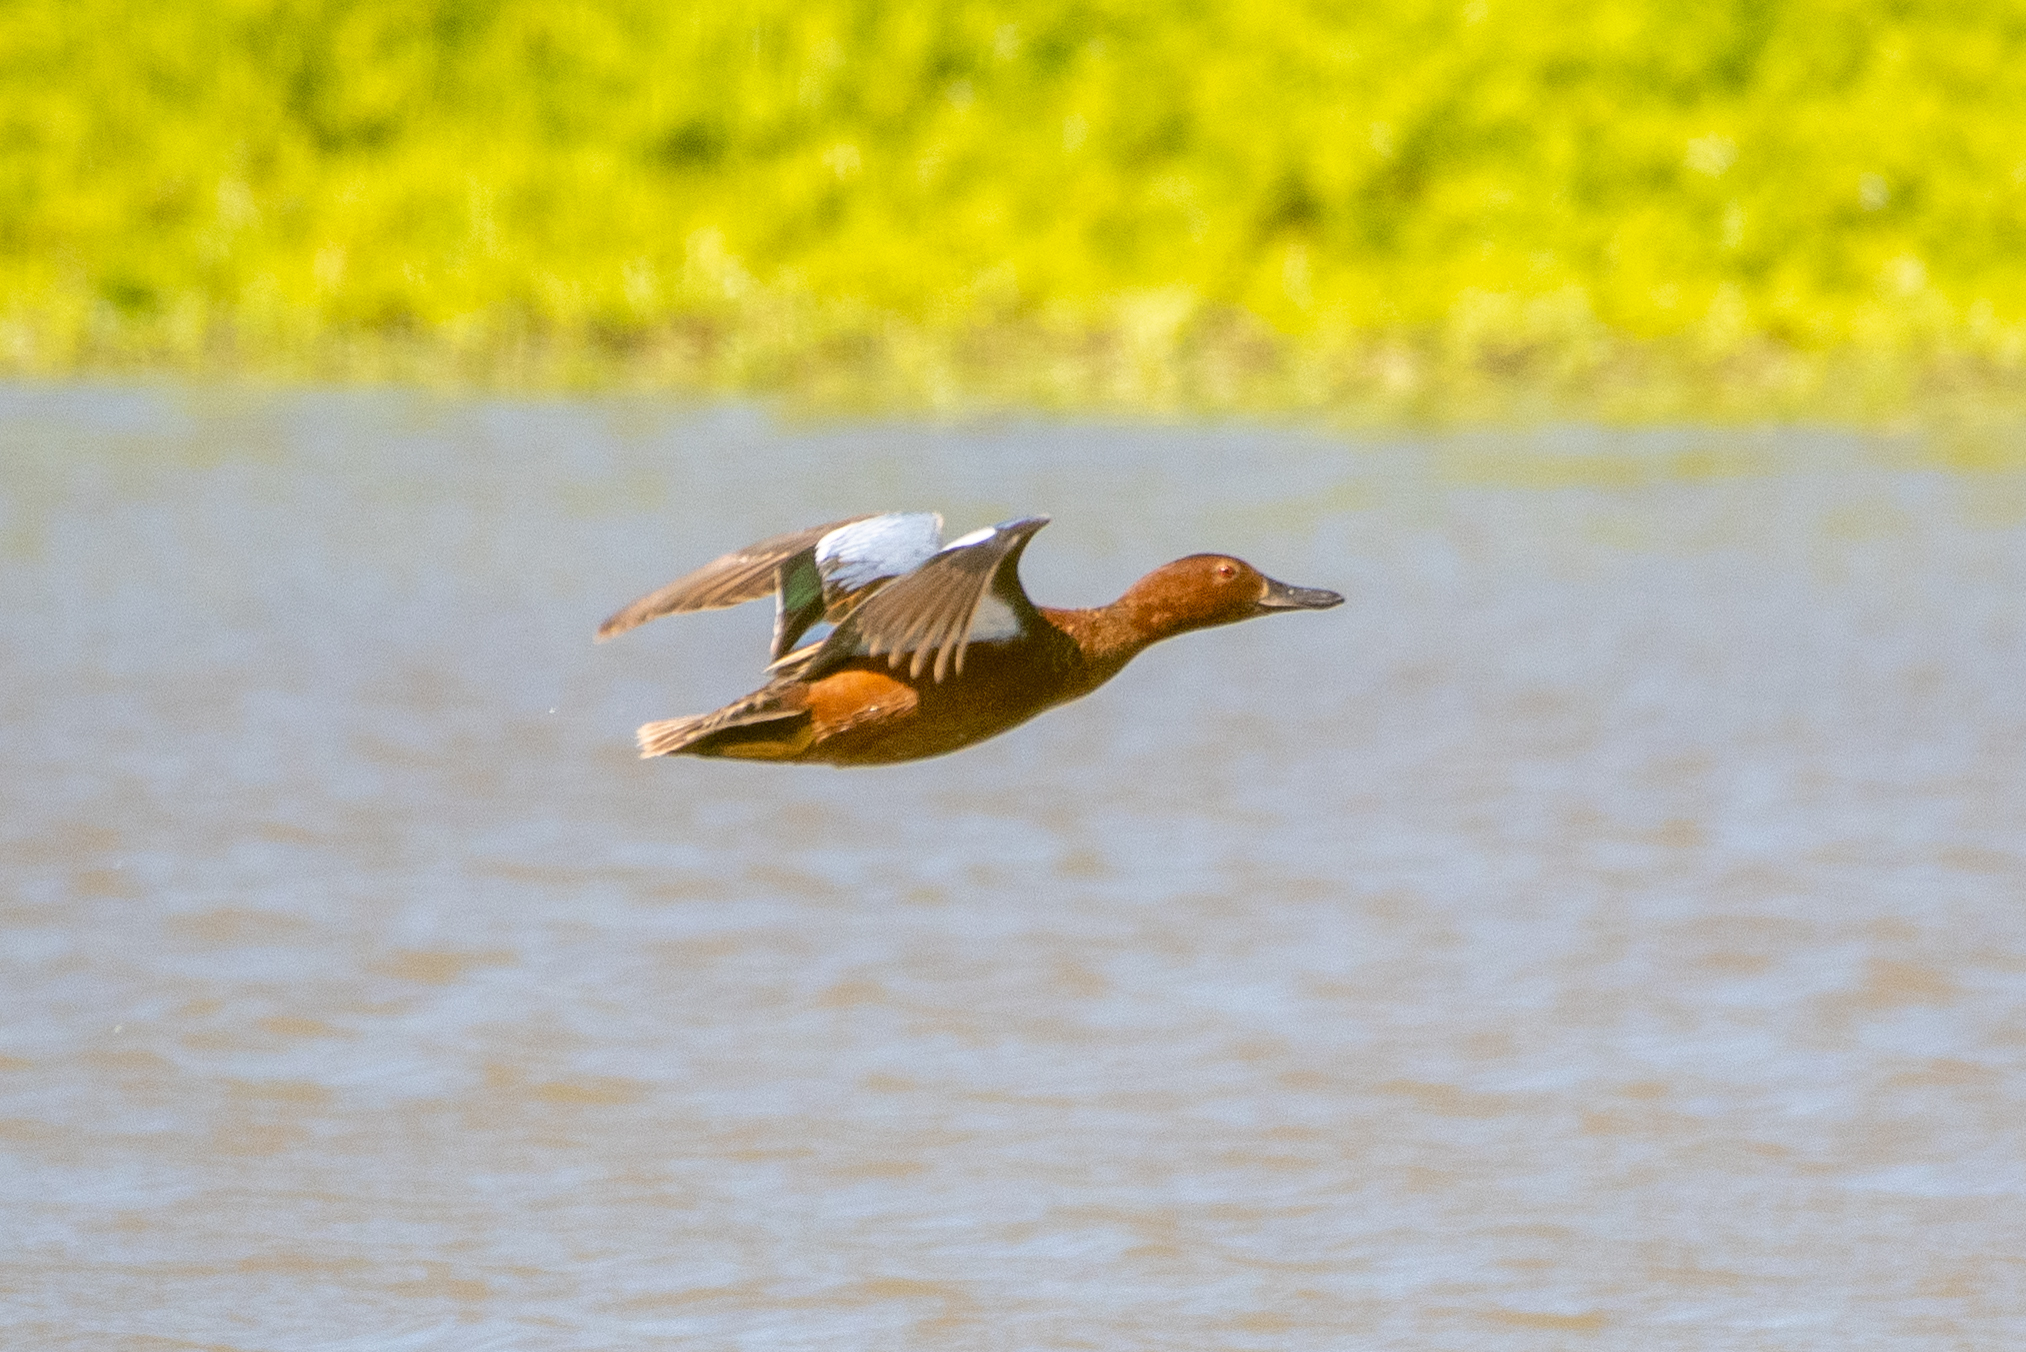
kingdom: Animalia
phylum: Chordata
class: Aves
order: Anseriformes
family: Anatidae
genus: Spatula
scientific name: Spatula cyanoptera
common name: Cinnamon teal
